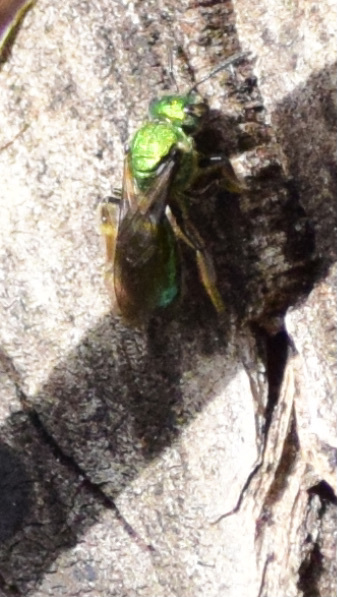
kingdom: Animalia
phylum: Arthropoda
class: Insecta
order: Hymenoptera
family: Halictidae
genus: Augochlora
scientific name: Augochlora pura
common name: Pure green sweat bee
